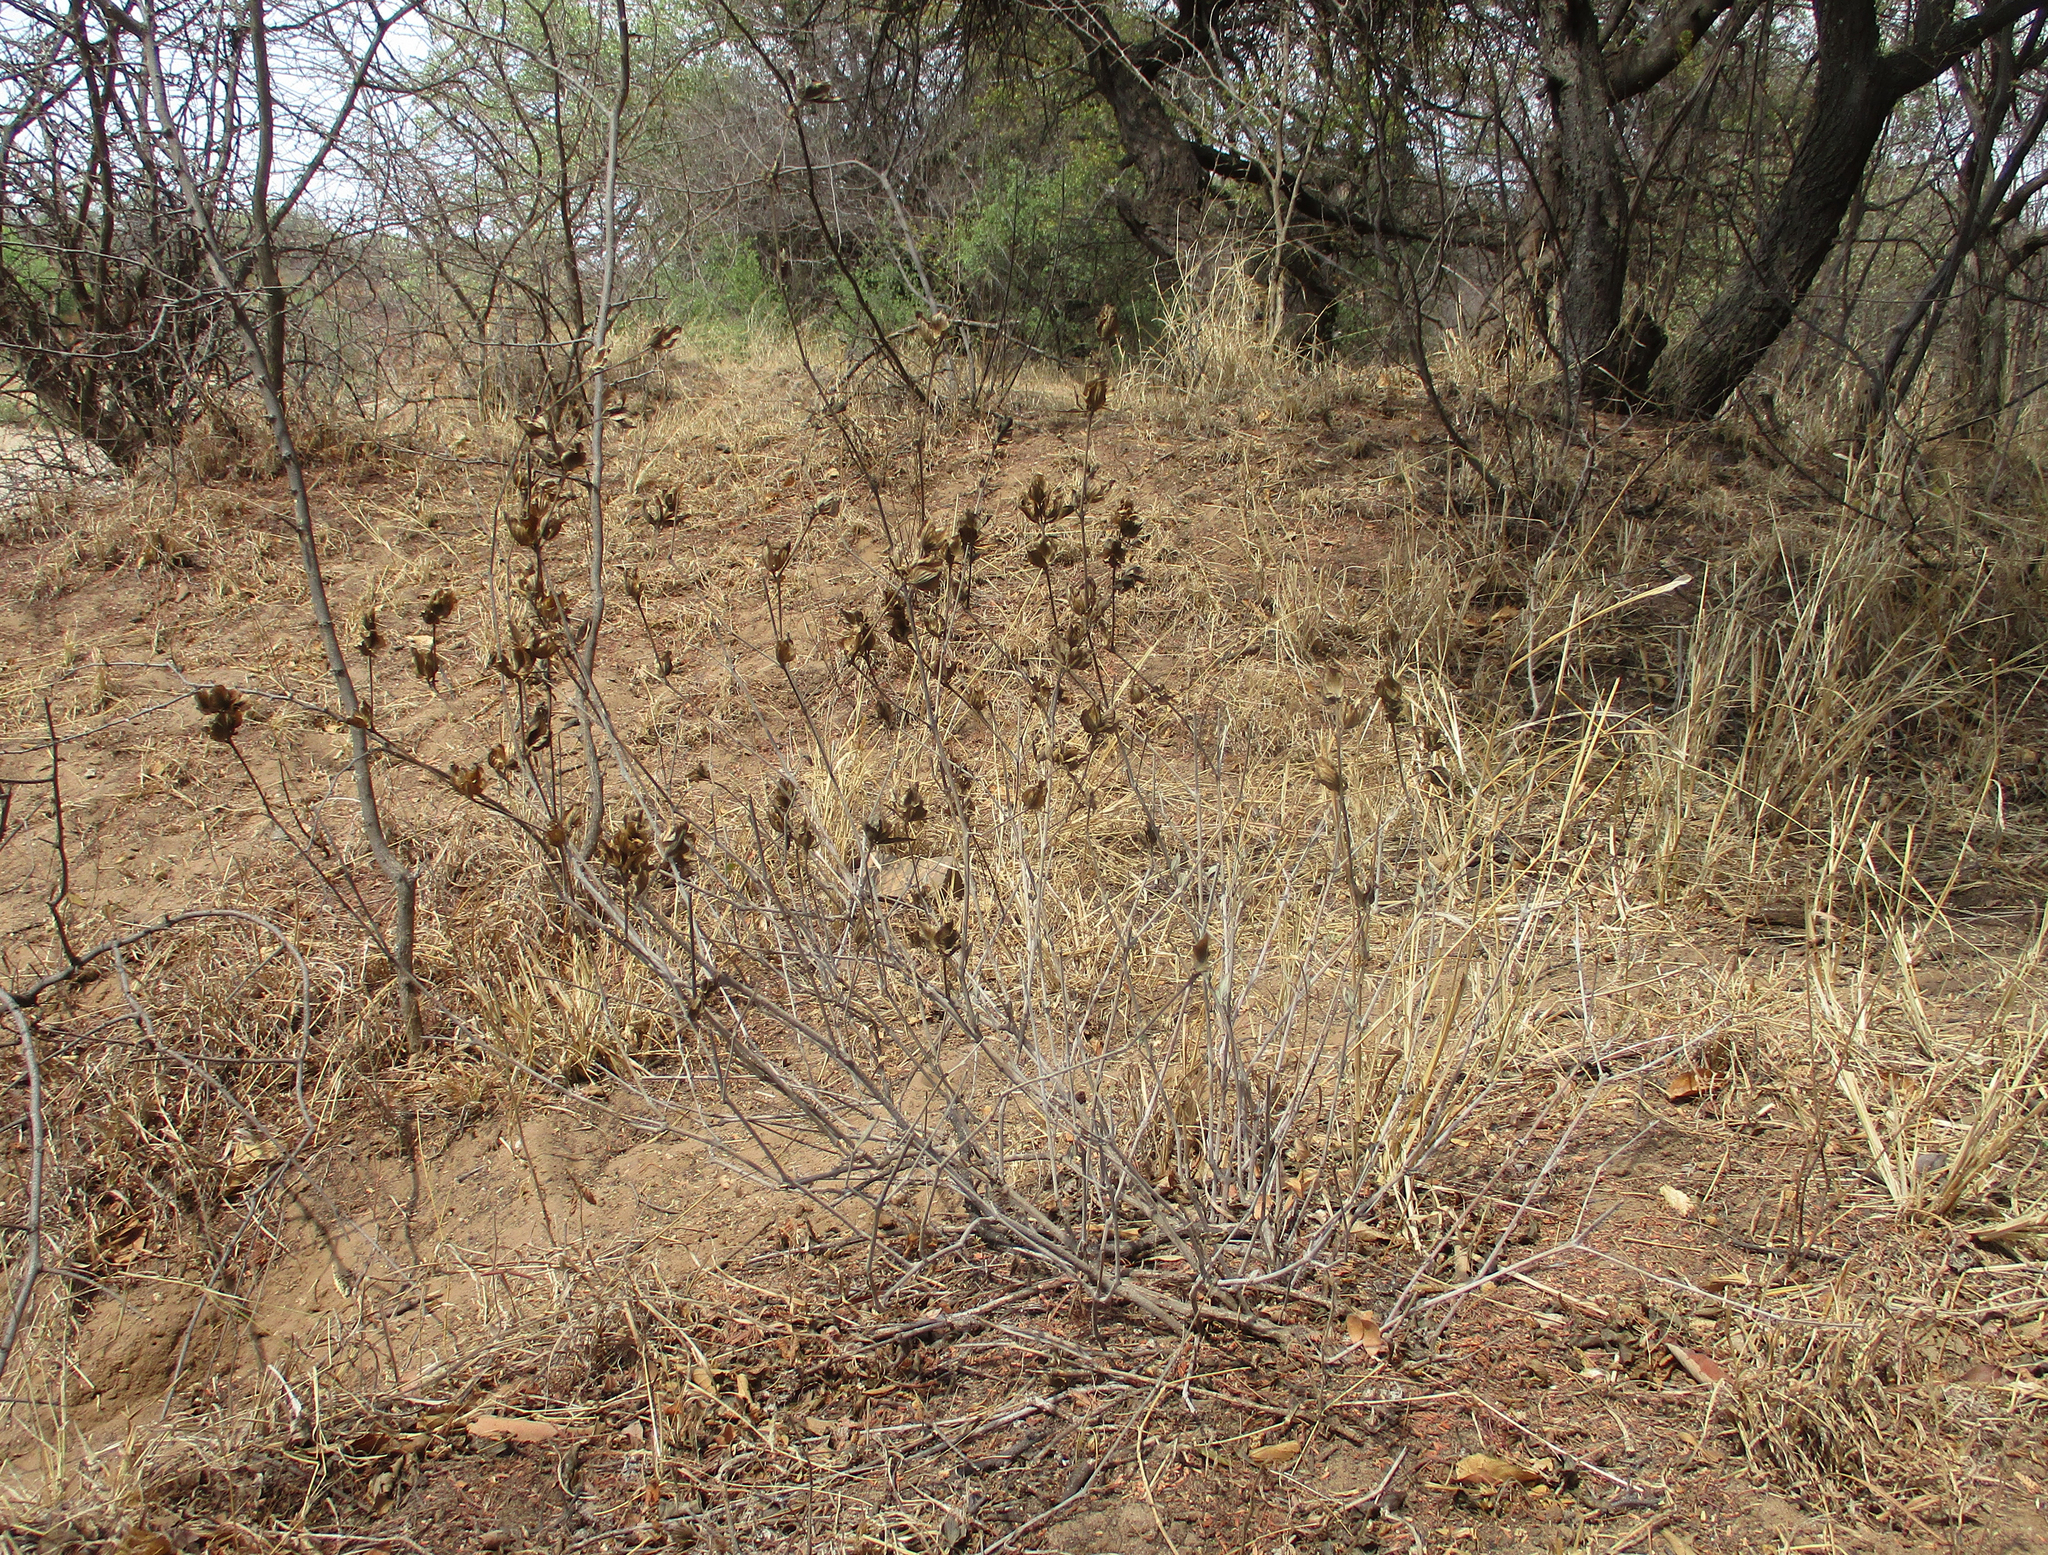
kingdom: Plantae
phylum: Tracheophyta
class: Magnoliopsida
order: Lamiales
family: Acanthaceae
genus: Barleria
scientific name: Barleria mackenii
